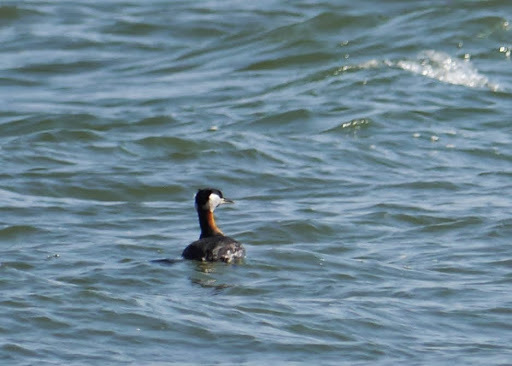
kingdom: Animalia
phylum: Chordata
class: Aves
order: Podicipediformes
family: Podicipedidae
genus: Podiceps
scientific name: Podiceps grisegena
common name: Red-necked grebe
